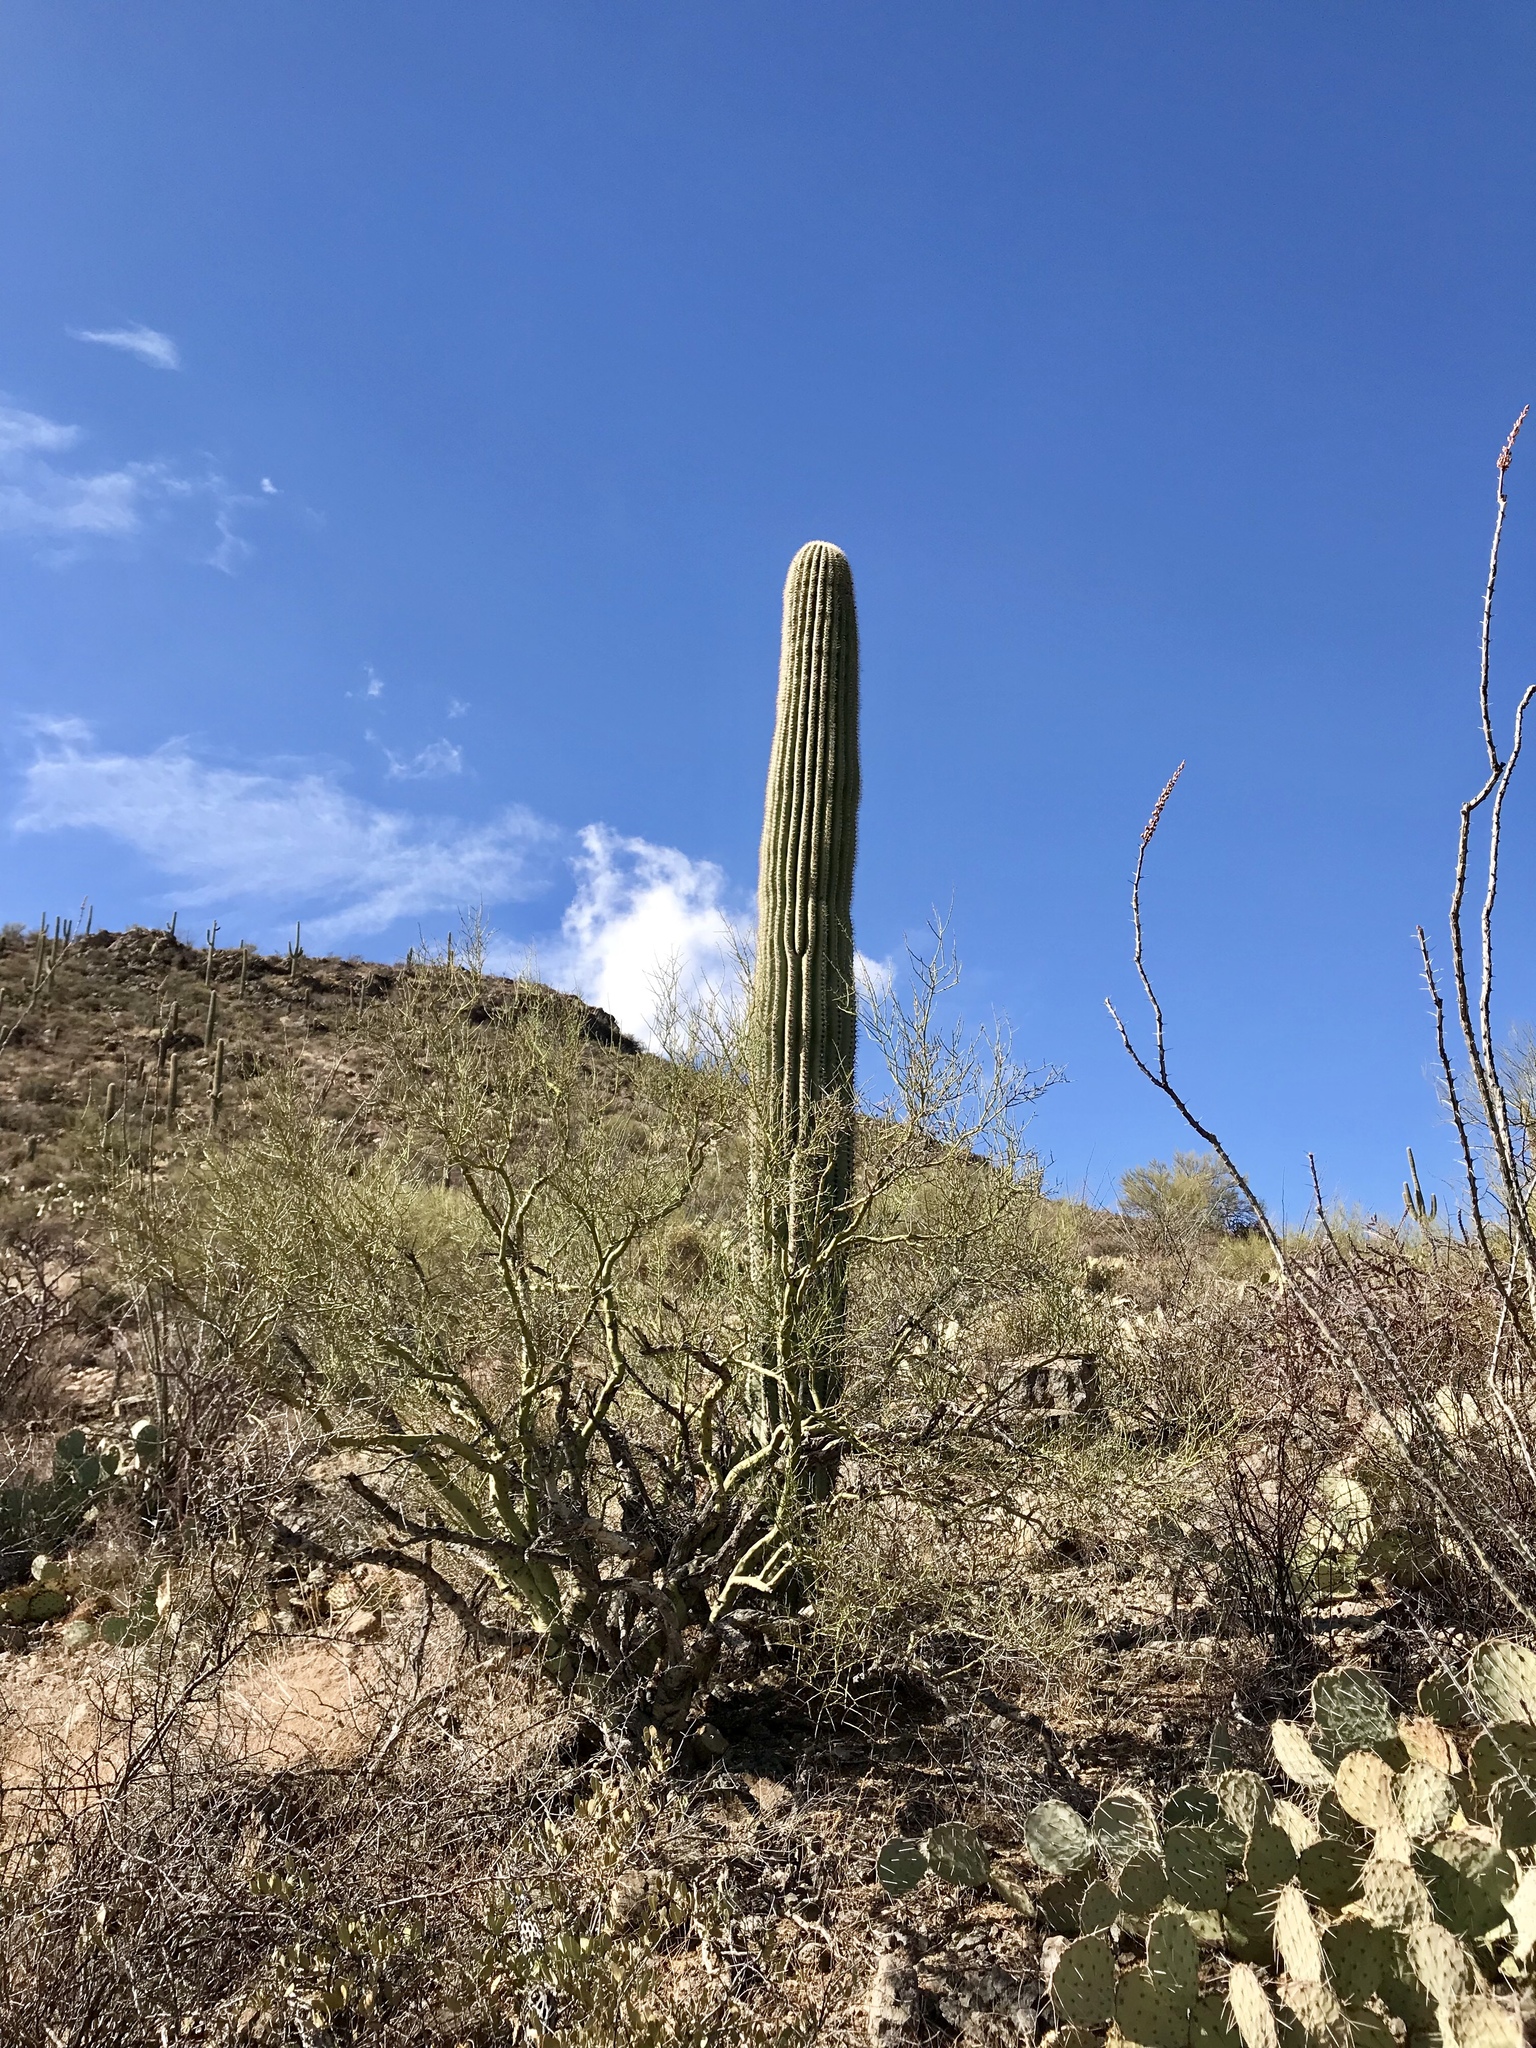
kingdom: Plantae
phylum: Tracheophyta
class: Magnoliopsida
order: Caryophyllales
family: Cactaceae
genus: Carnegiea
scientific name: Carnegiea gigantea
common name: Saguaro
